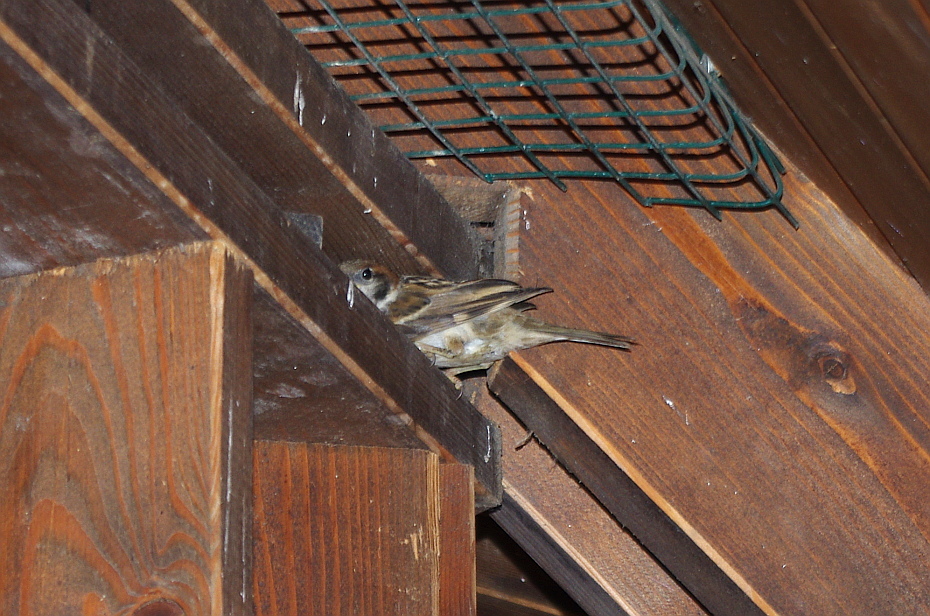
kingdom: Animalia
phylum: Chordata
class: Aves
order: Passeriformes
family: Passeridae
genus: Passer
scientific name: Passer montanus
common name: Eurasian tree sparrow
